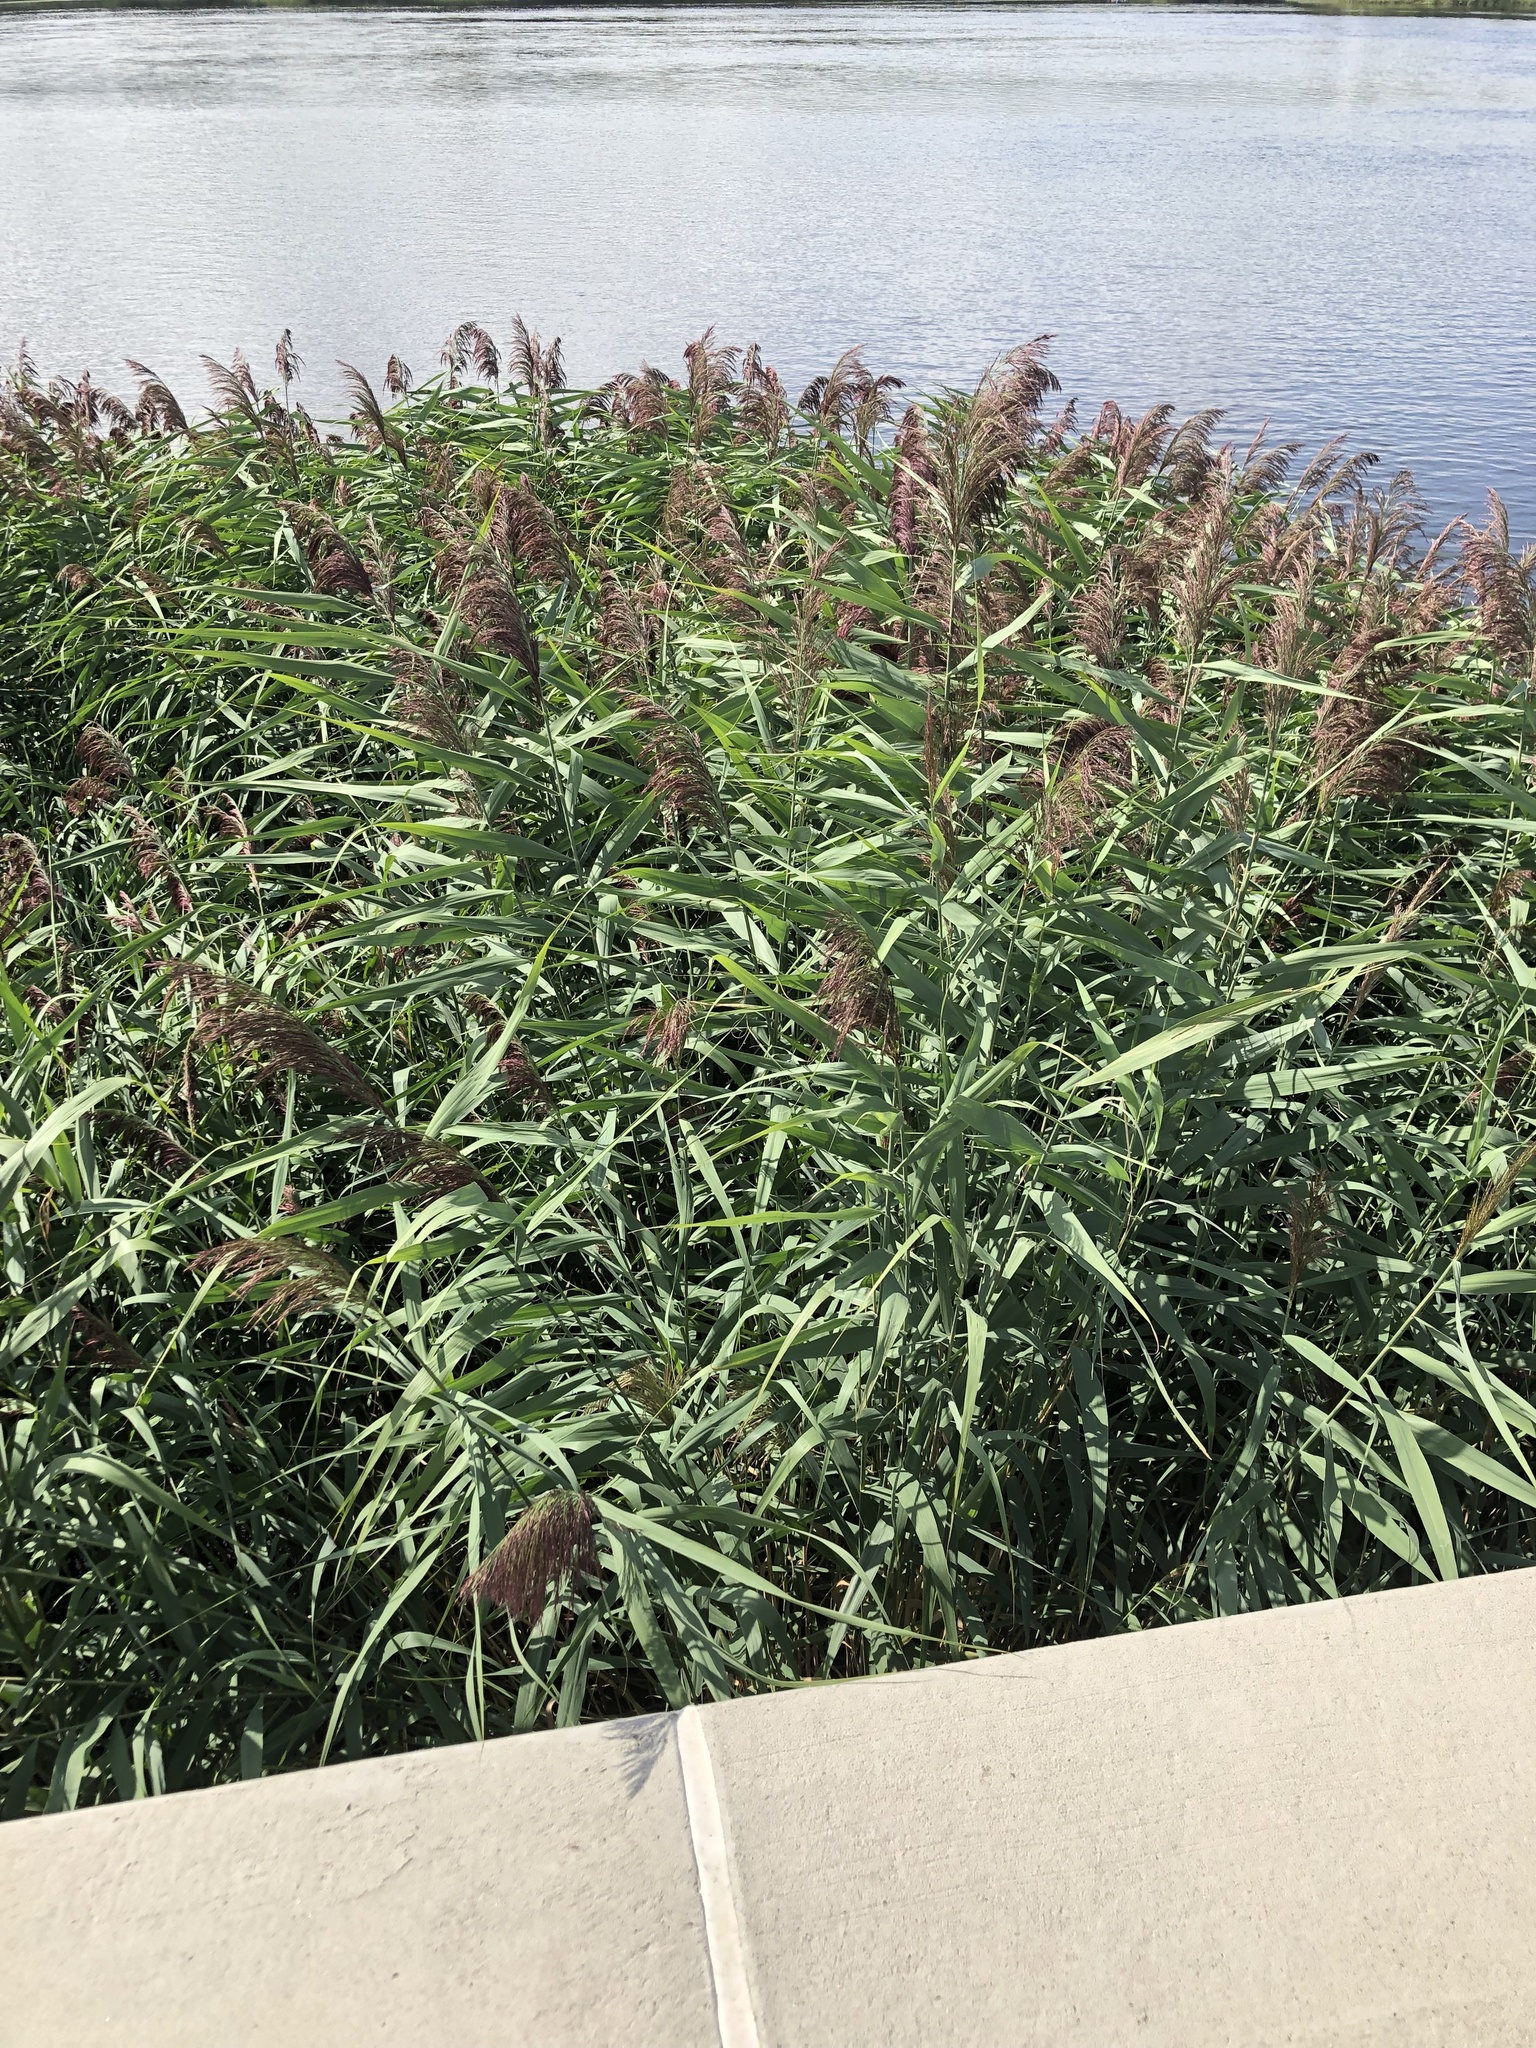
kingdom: Plantae
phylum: Tracheophyta
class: Liliopsida
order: Poales
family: Poaceae
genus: Phragmites
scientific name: Phragmites australis
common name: Common reed
